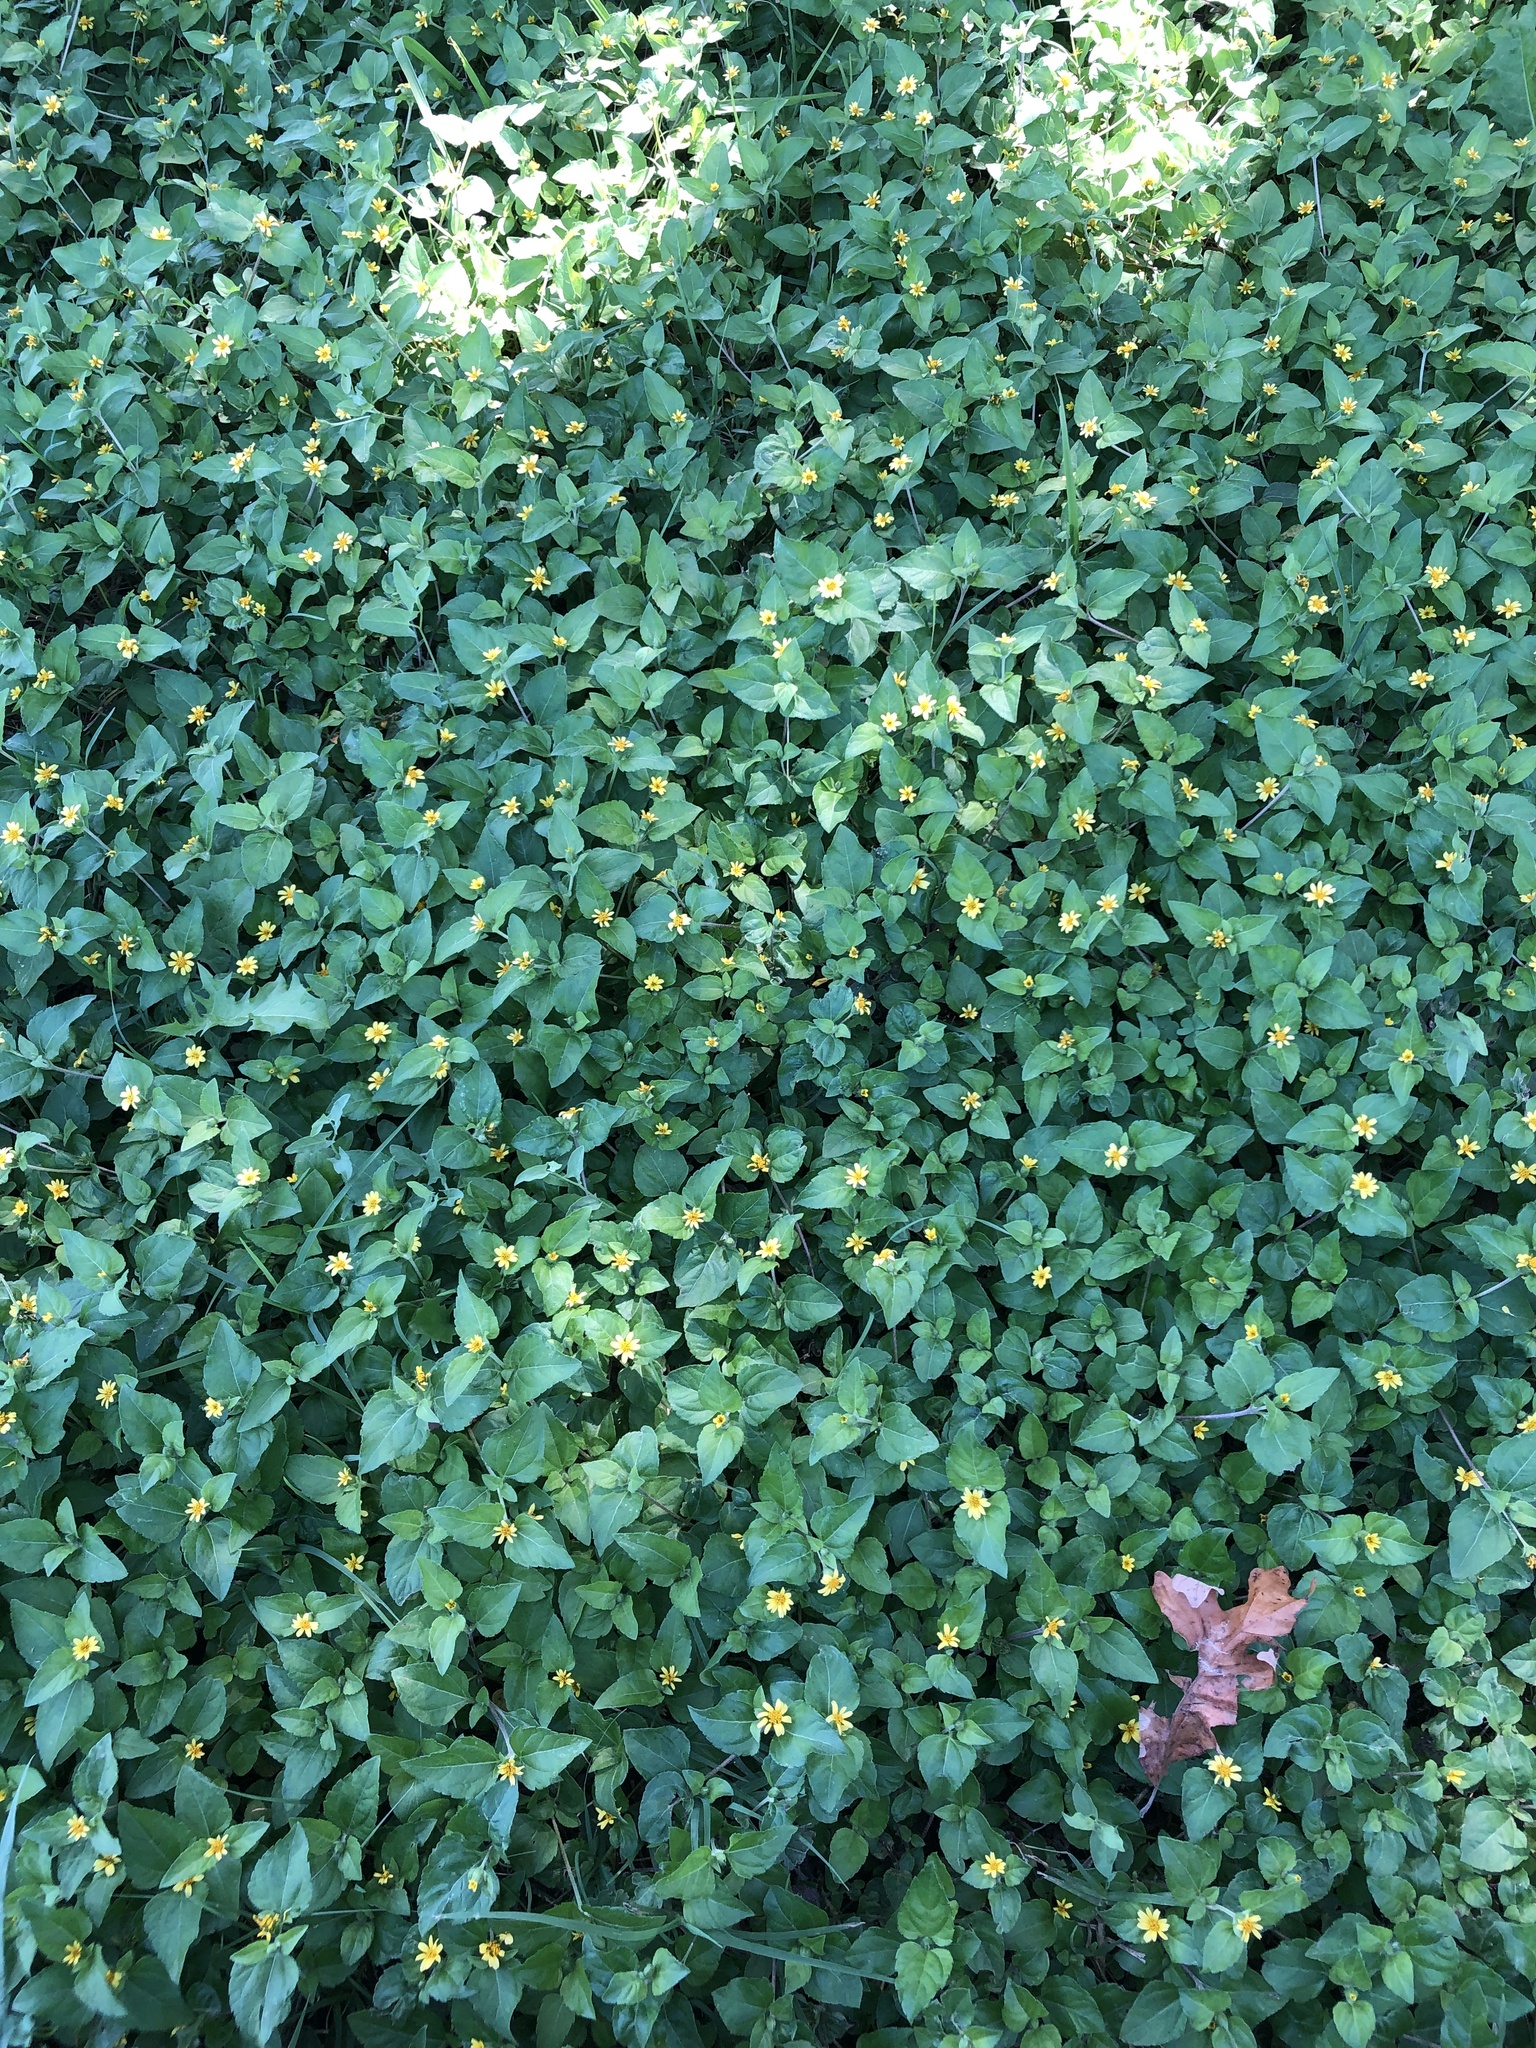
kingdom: Plantae
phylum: Tracheophyta
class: Magnoliopsida
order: Asterales
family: Asteraceae
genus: Calyptocarpus
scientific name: Calyptocarpus vialis
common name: Straggler daisy
